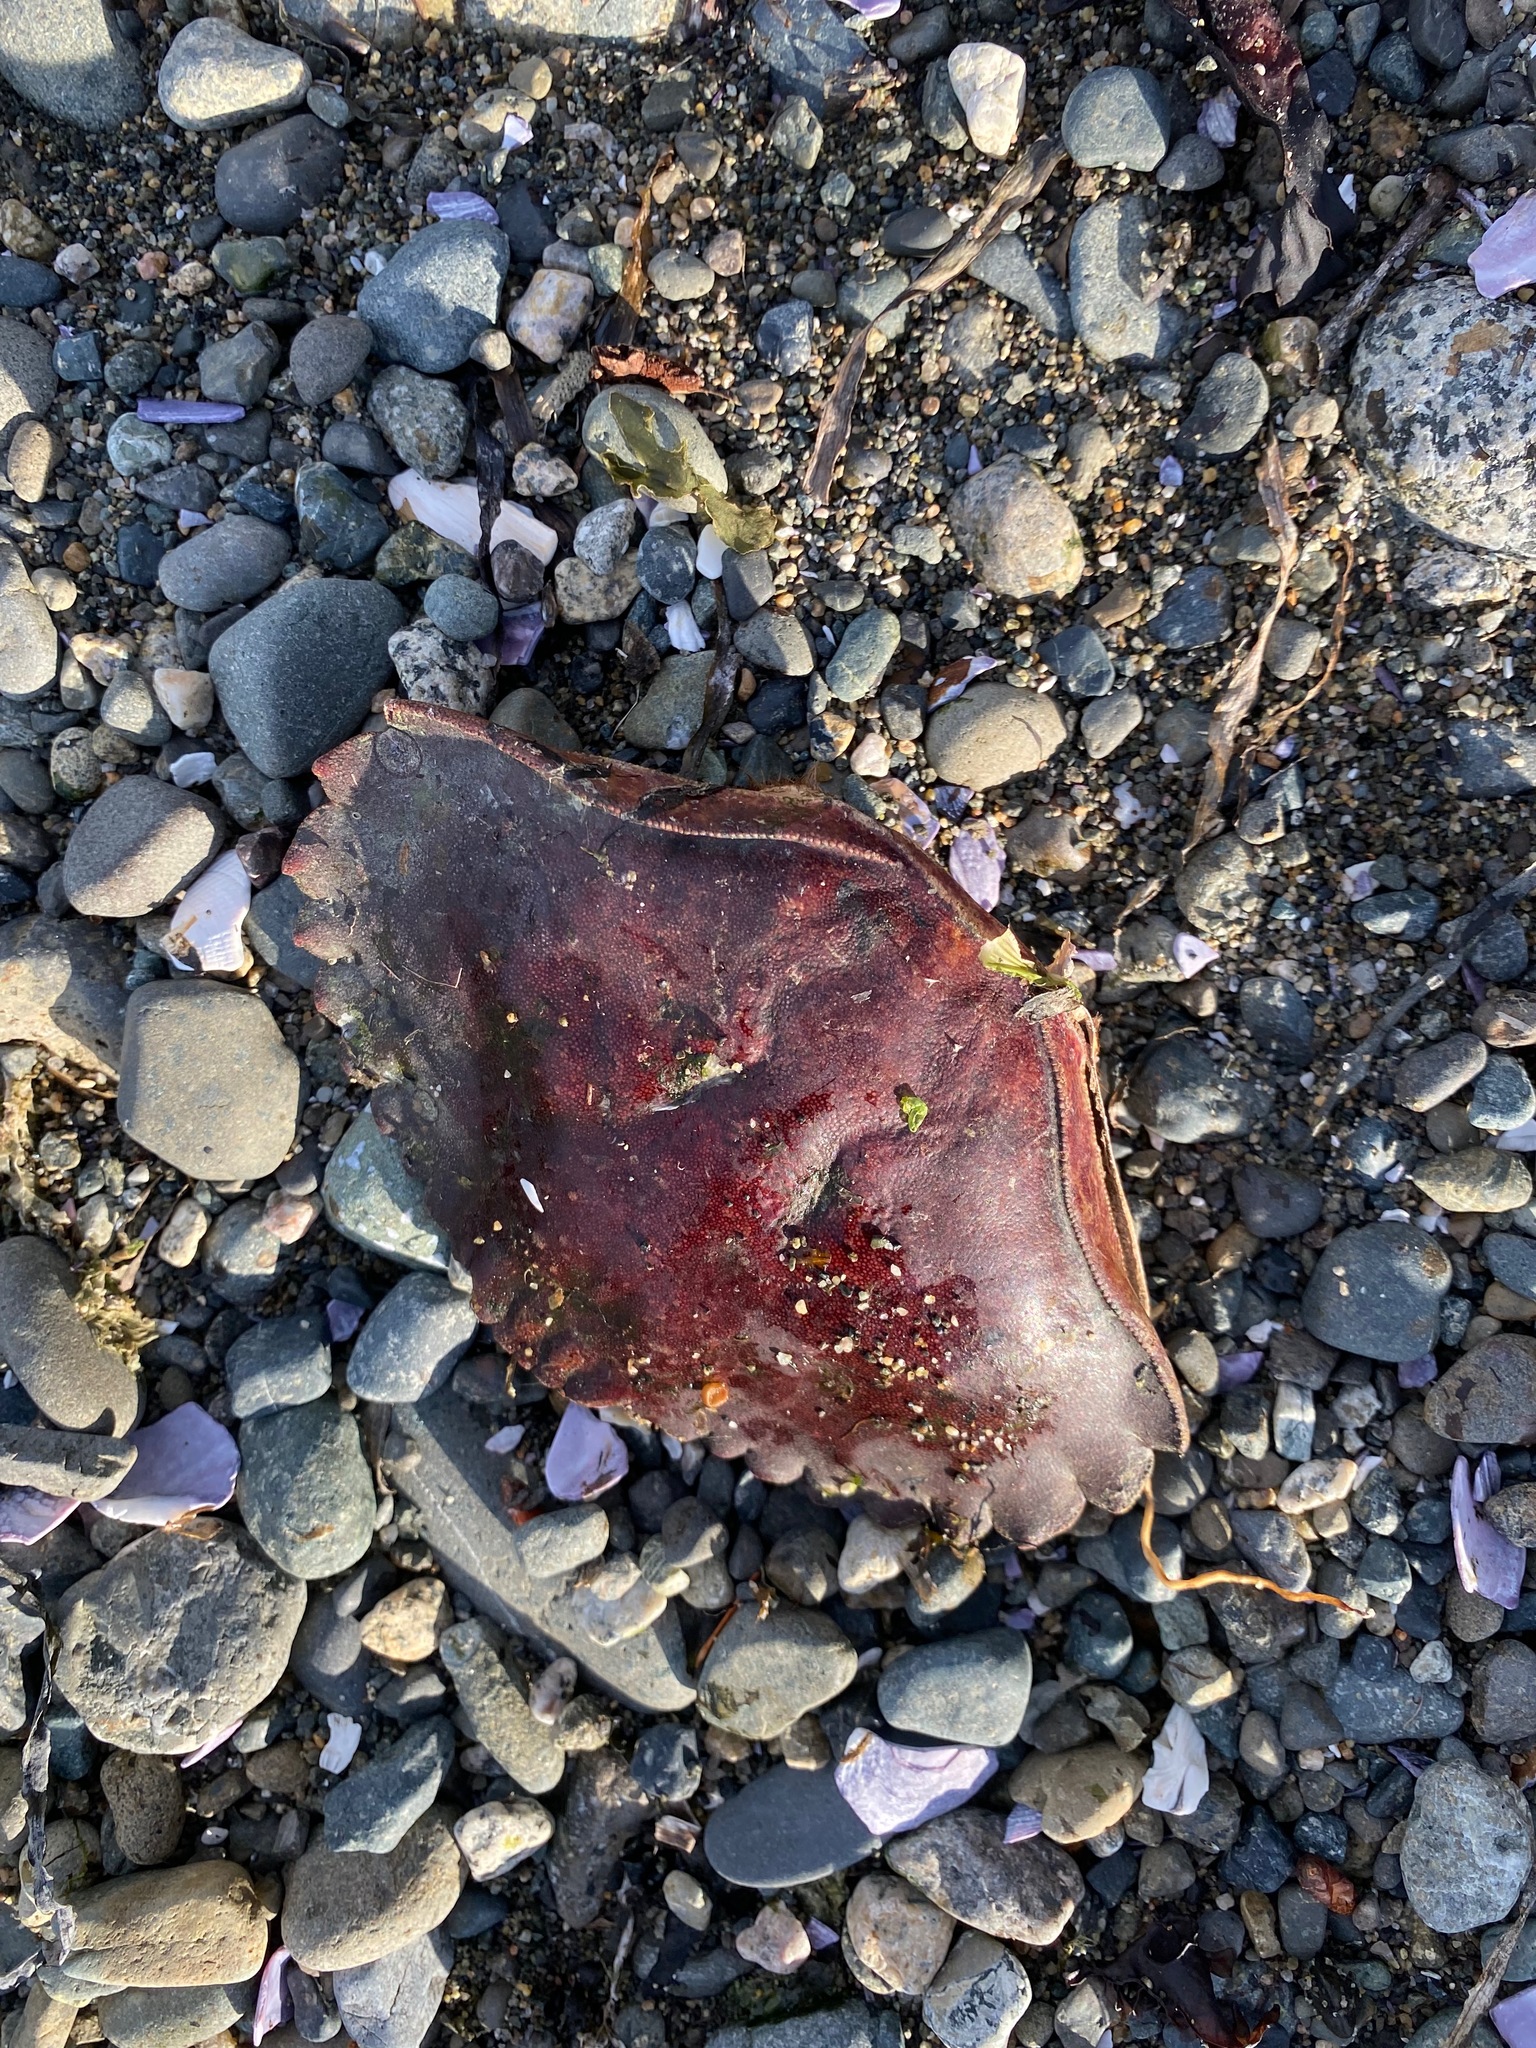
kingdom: Animalia
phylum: Arthropoda
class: Malacostraca
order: Decapoda
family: Cancridae
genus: Cancer
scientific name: Cancer productus
